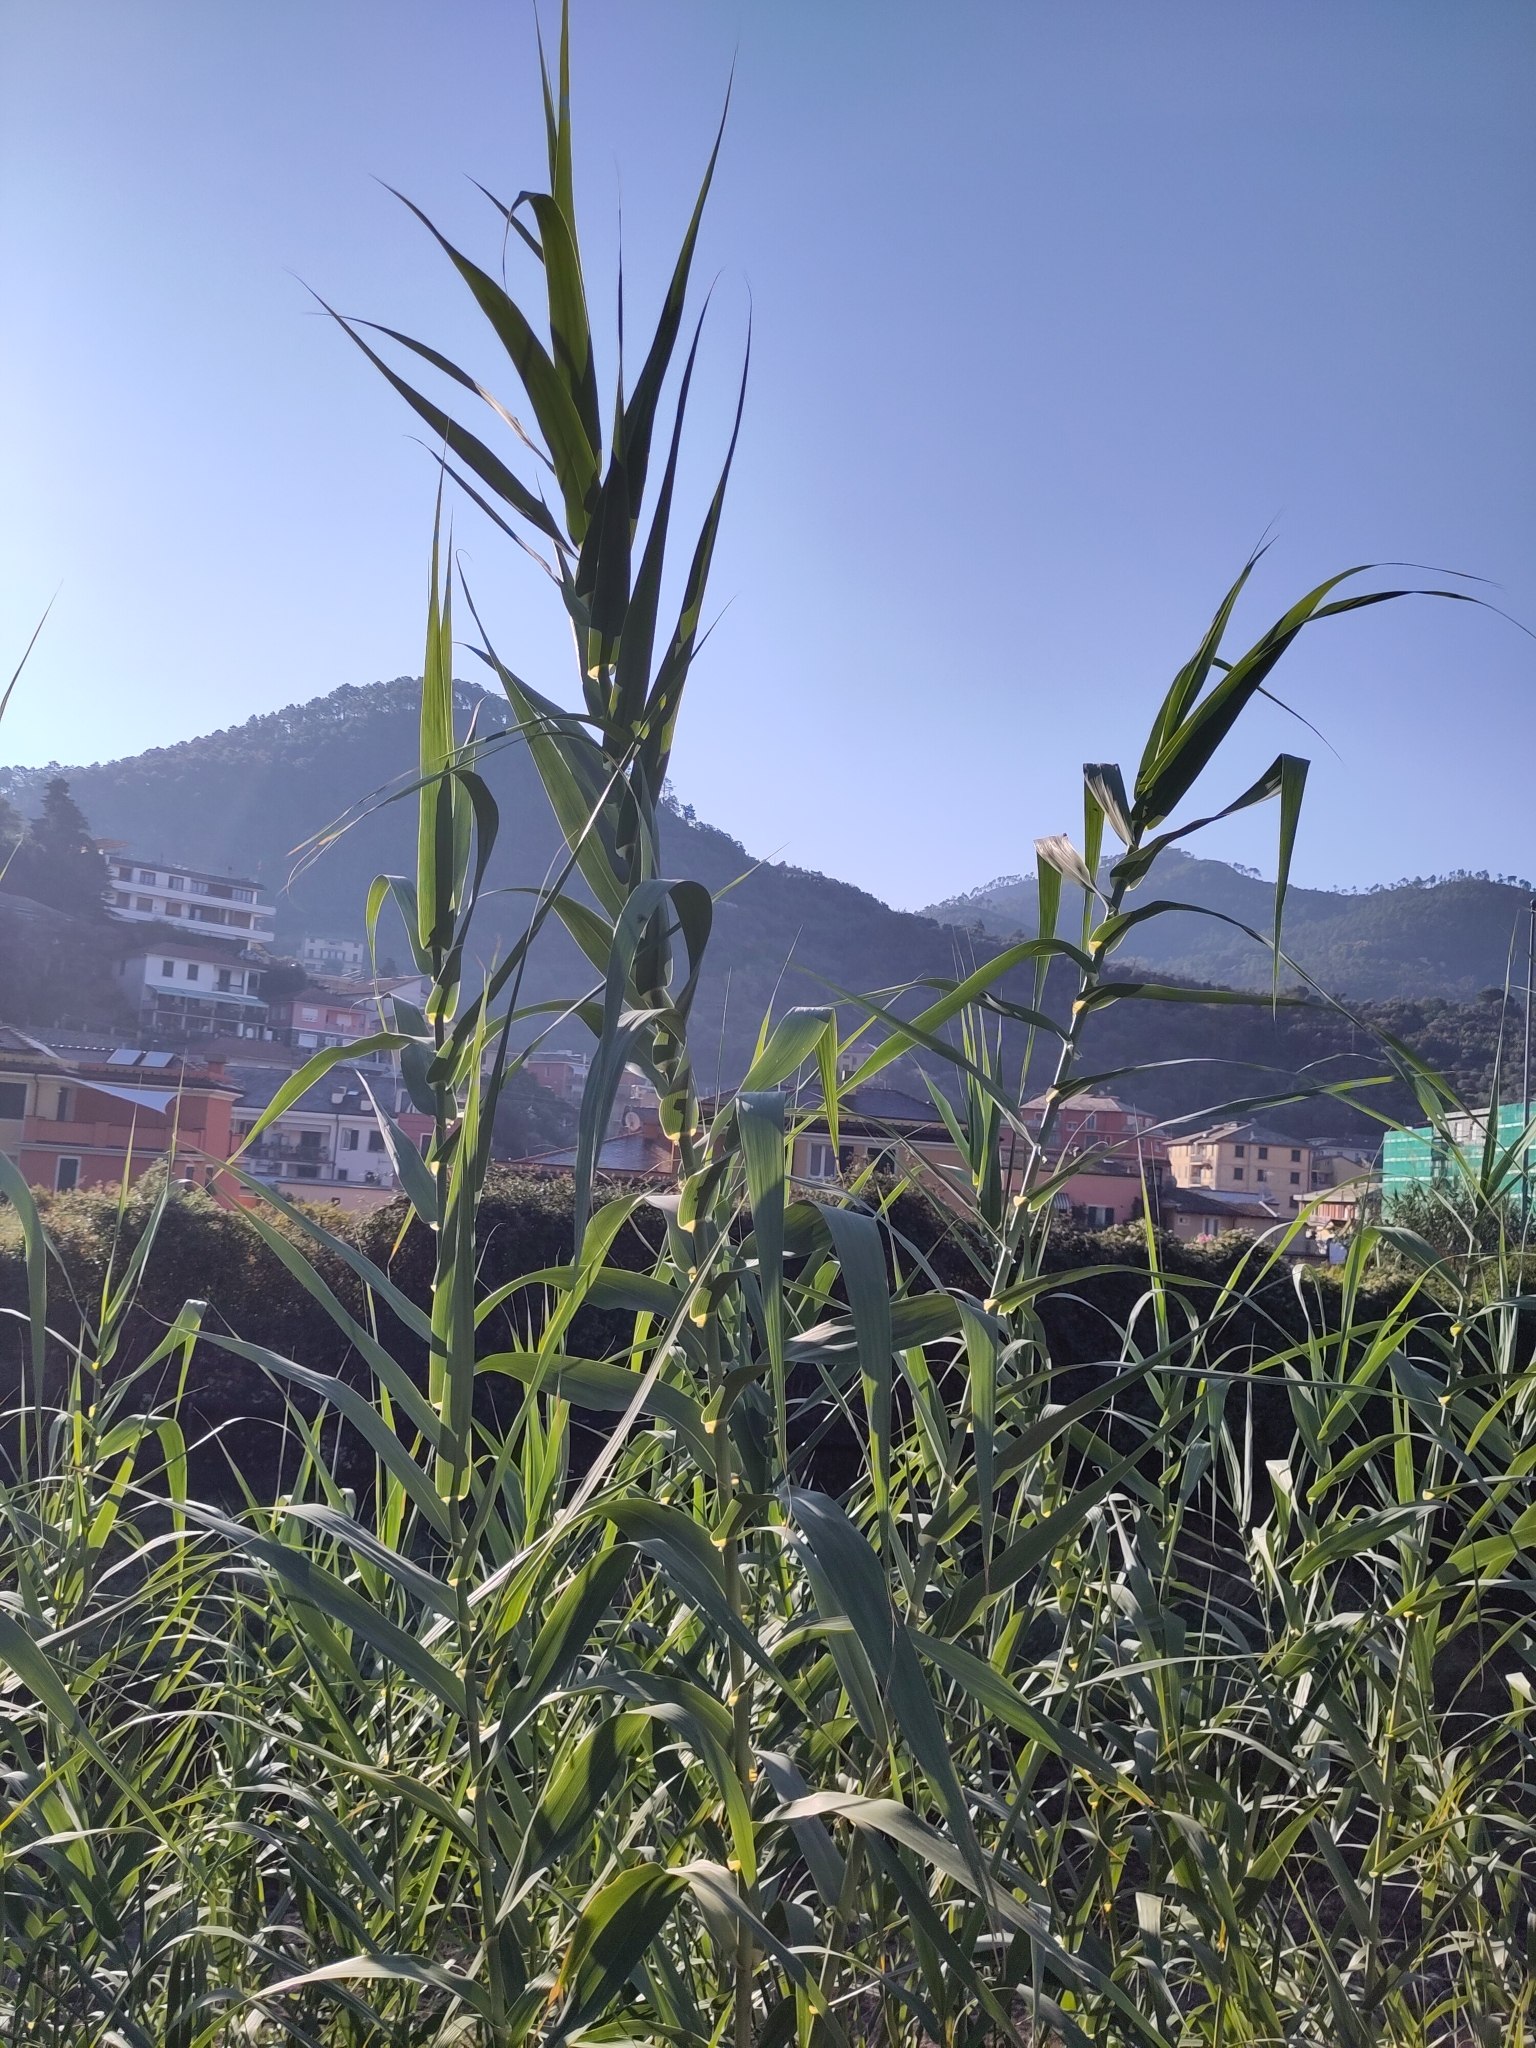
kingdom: Plantae
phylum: Tracheophyta
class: Liliopsida
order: Poales
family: Poaceae
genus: Arundo
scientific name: Arundo donax
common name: Giant reed
